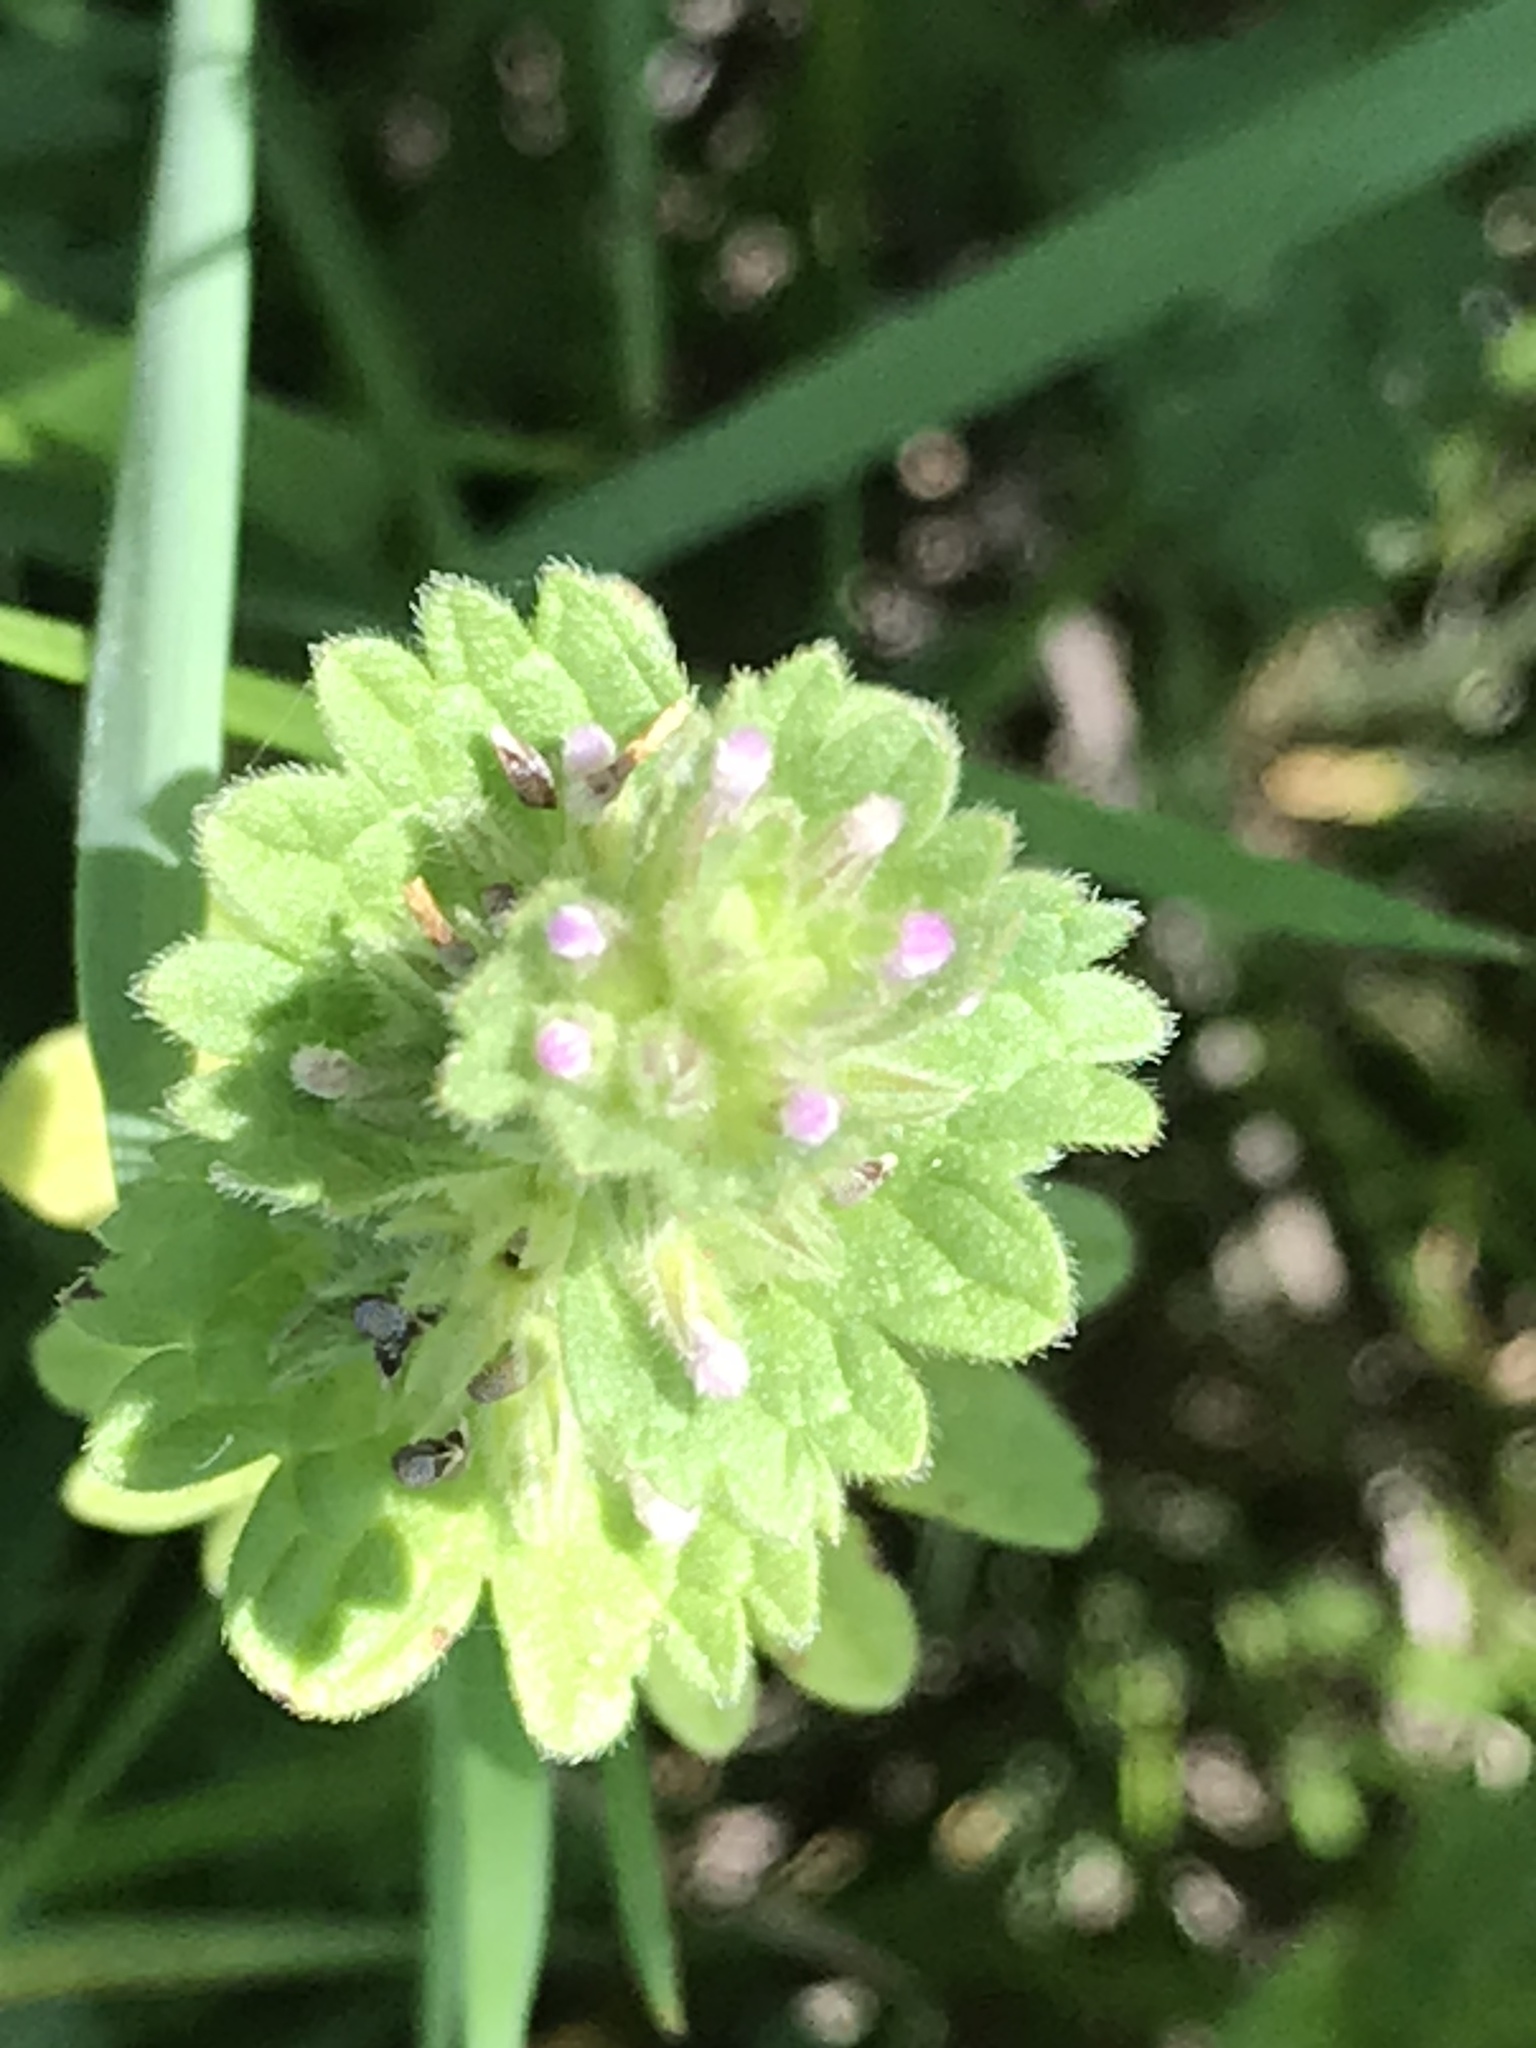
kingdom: Plantae
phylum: Tracheophyta
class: Magnoliopsida
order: Lamiales
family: Lamiaceae
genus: Lamium
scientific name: Lamium amplexicaule
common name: Henbit dead-nettle
